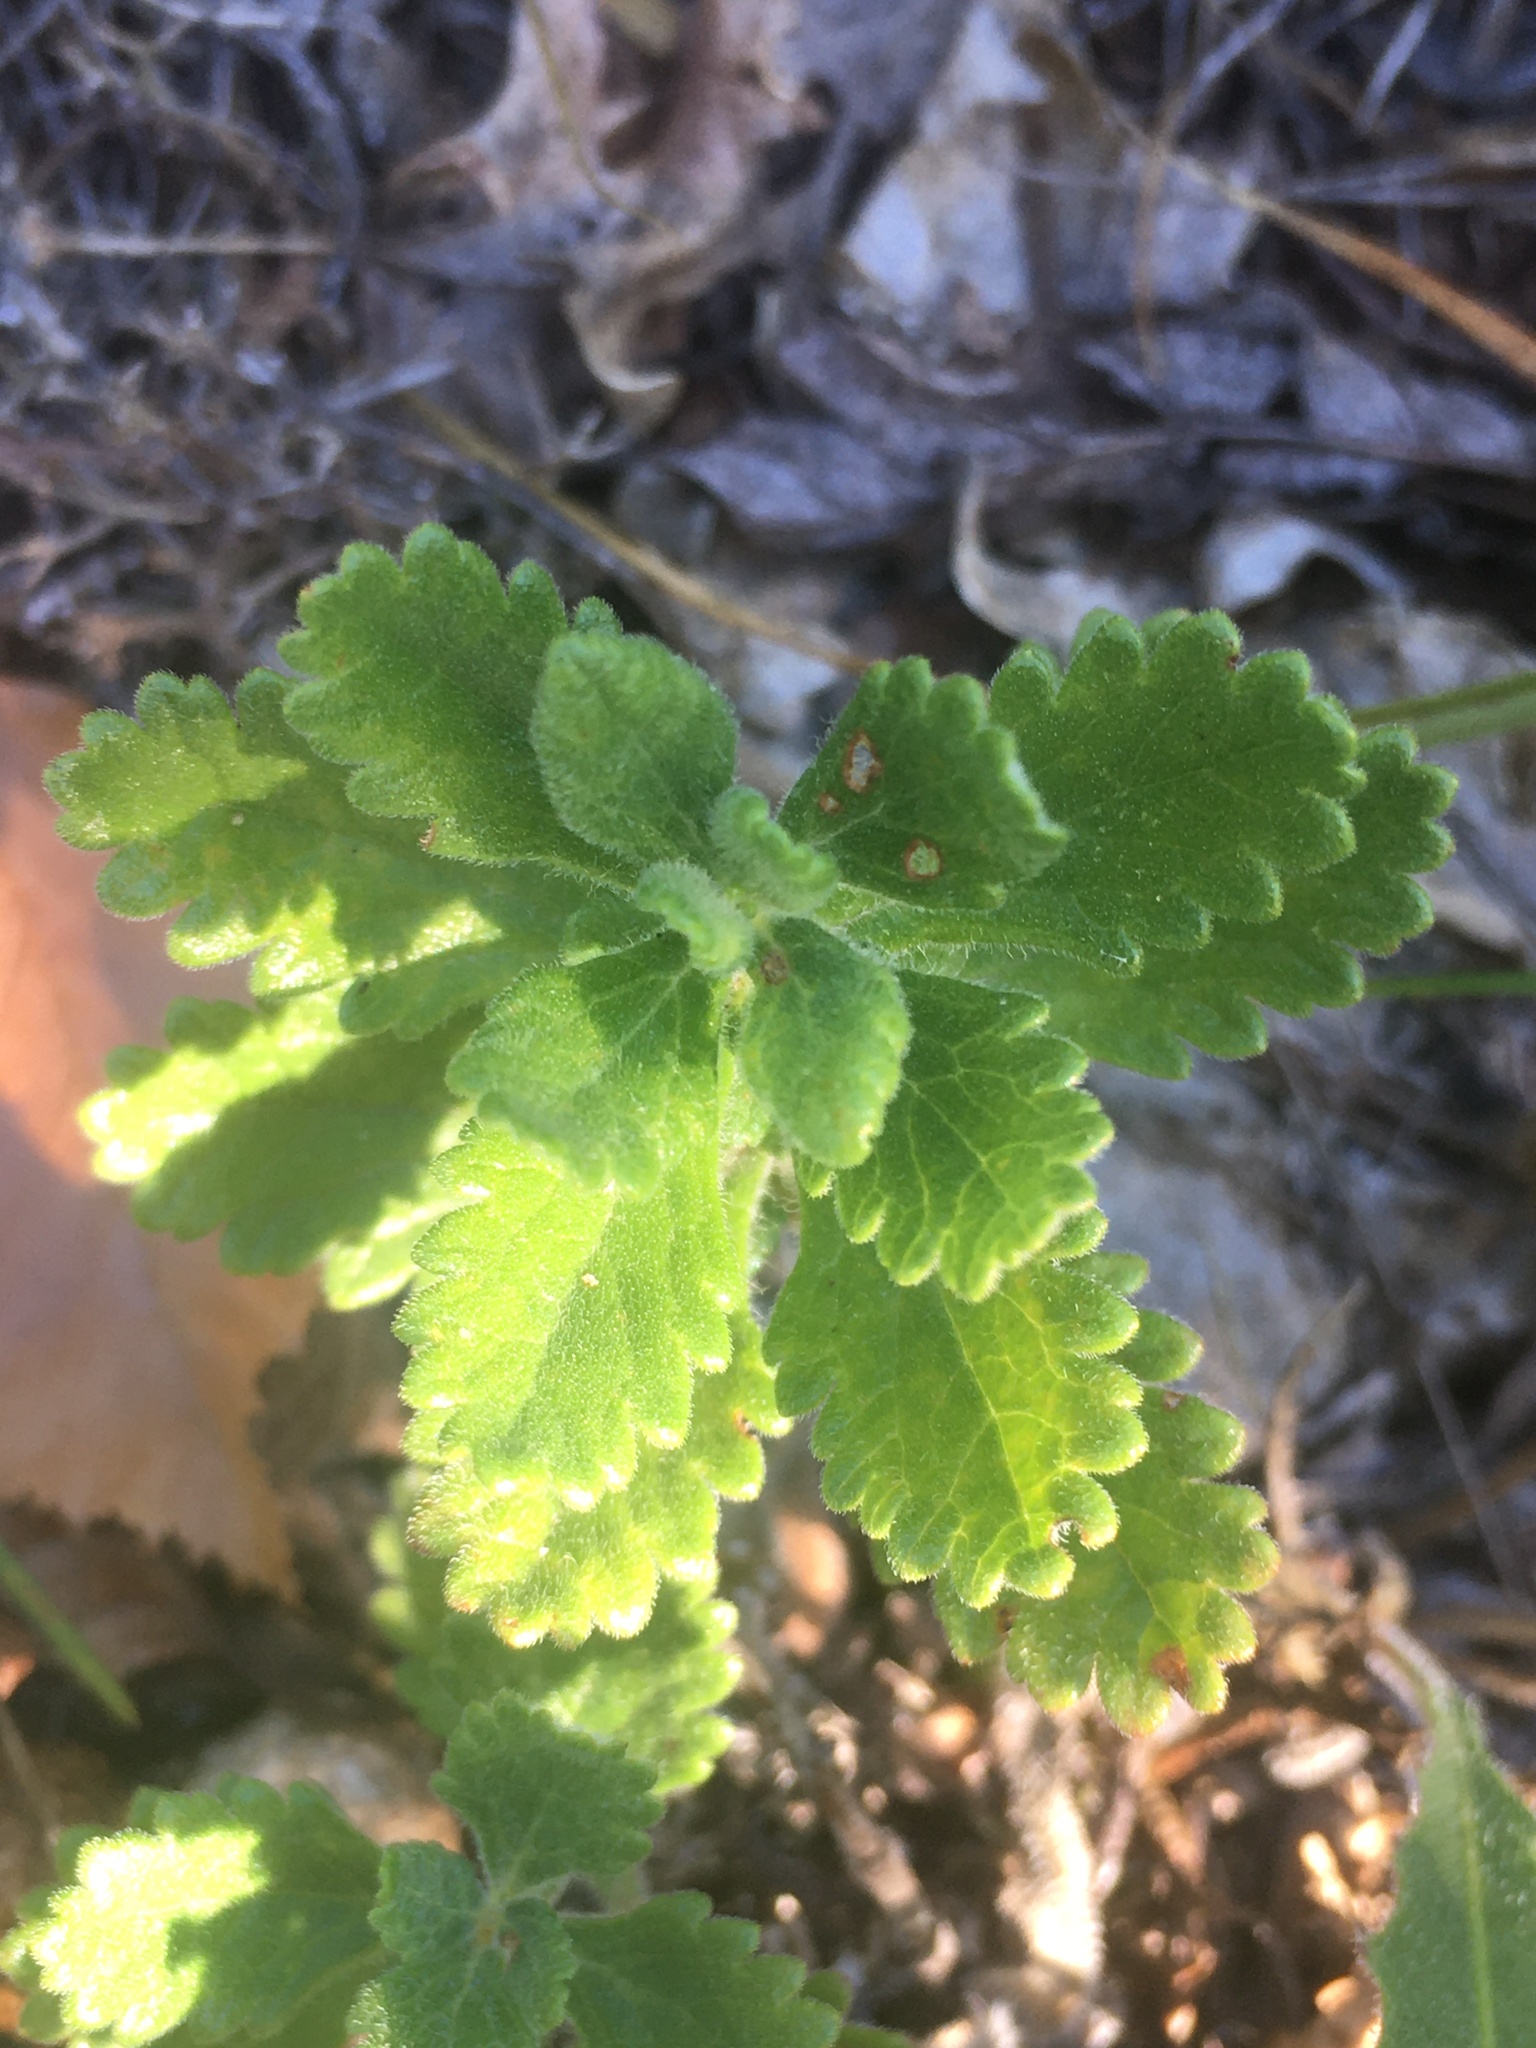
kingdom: Plantae
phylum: Tracheophyta
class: Magnoliopsida
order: Lamiales
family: Lamiaceae
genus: Teucrium
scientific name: Teucrium chamaedrys
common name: Wall germander
